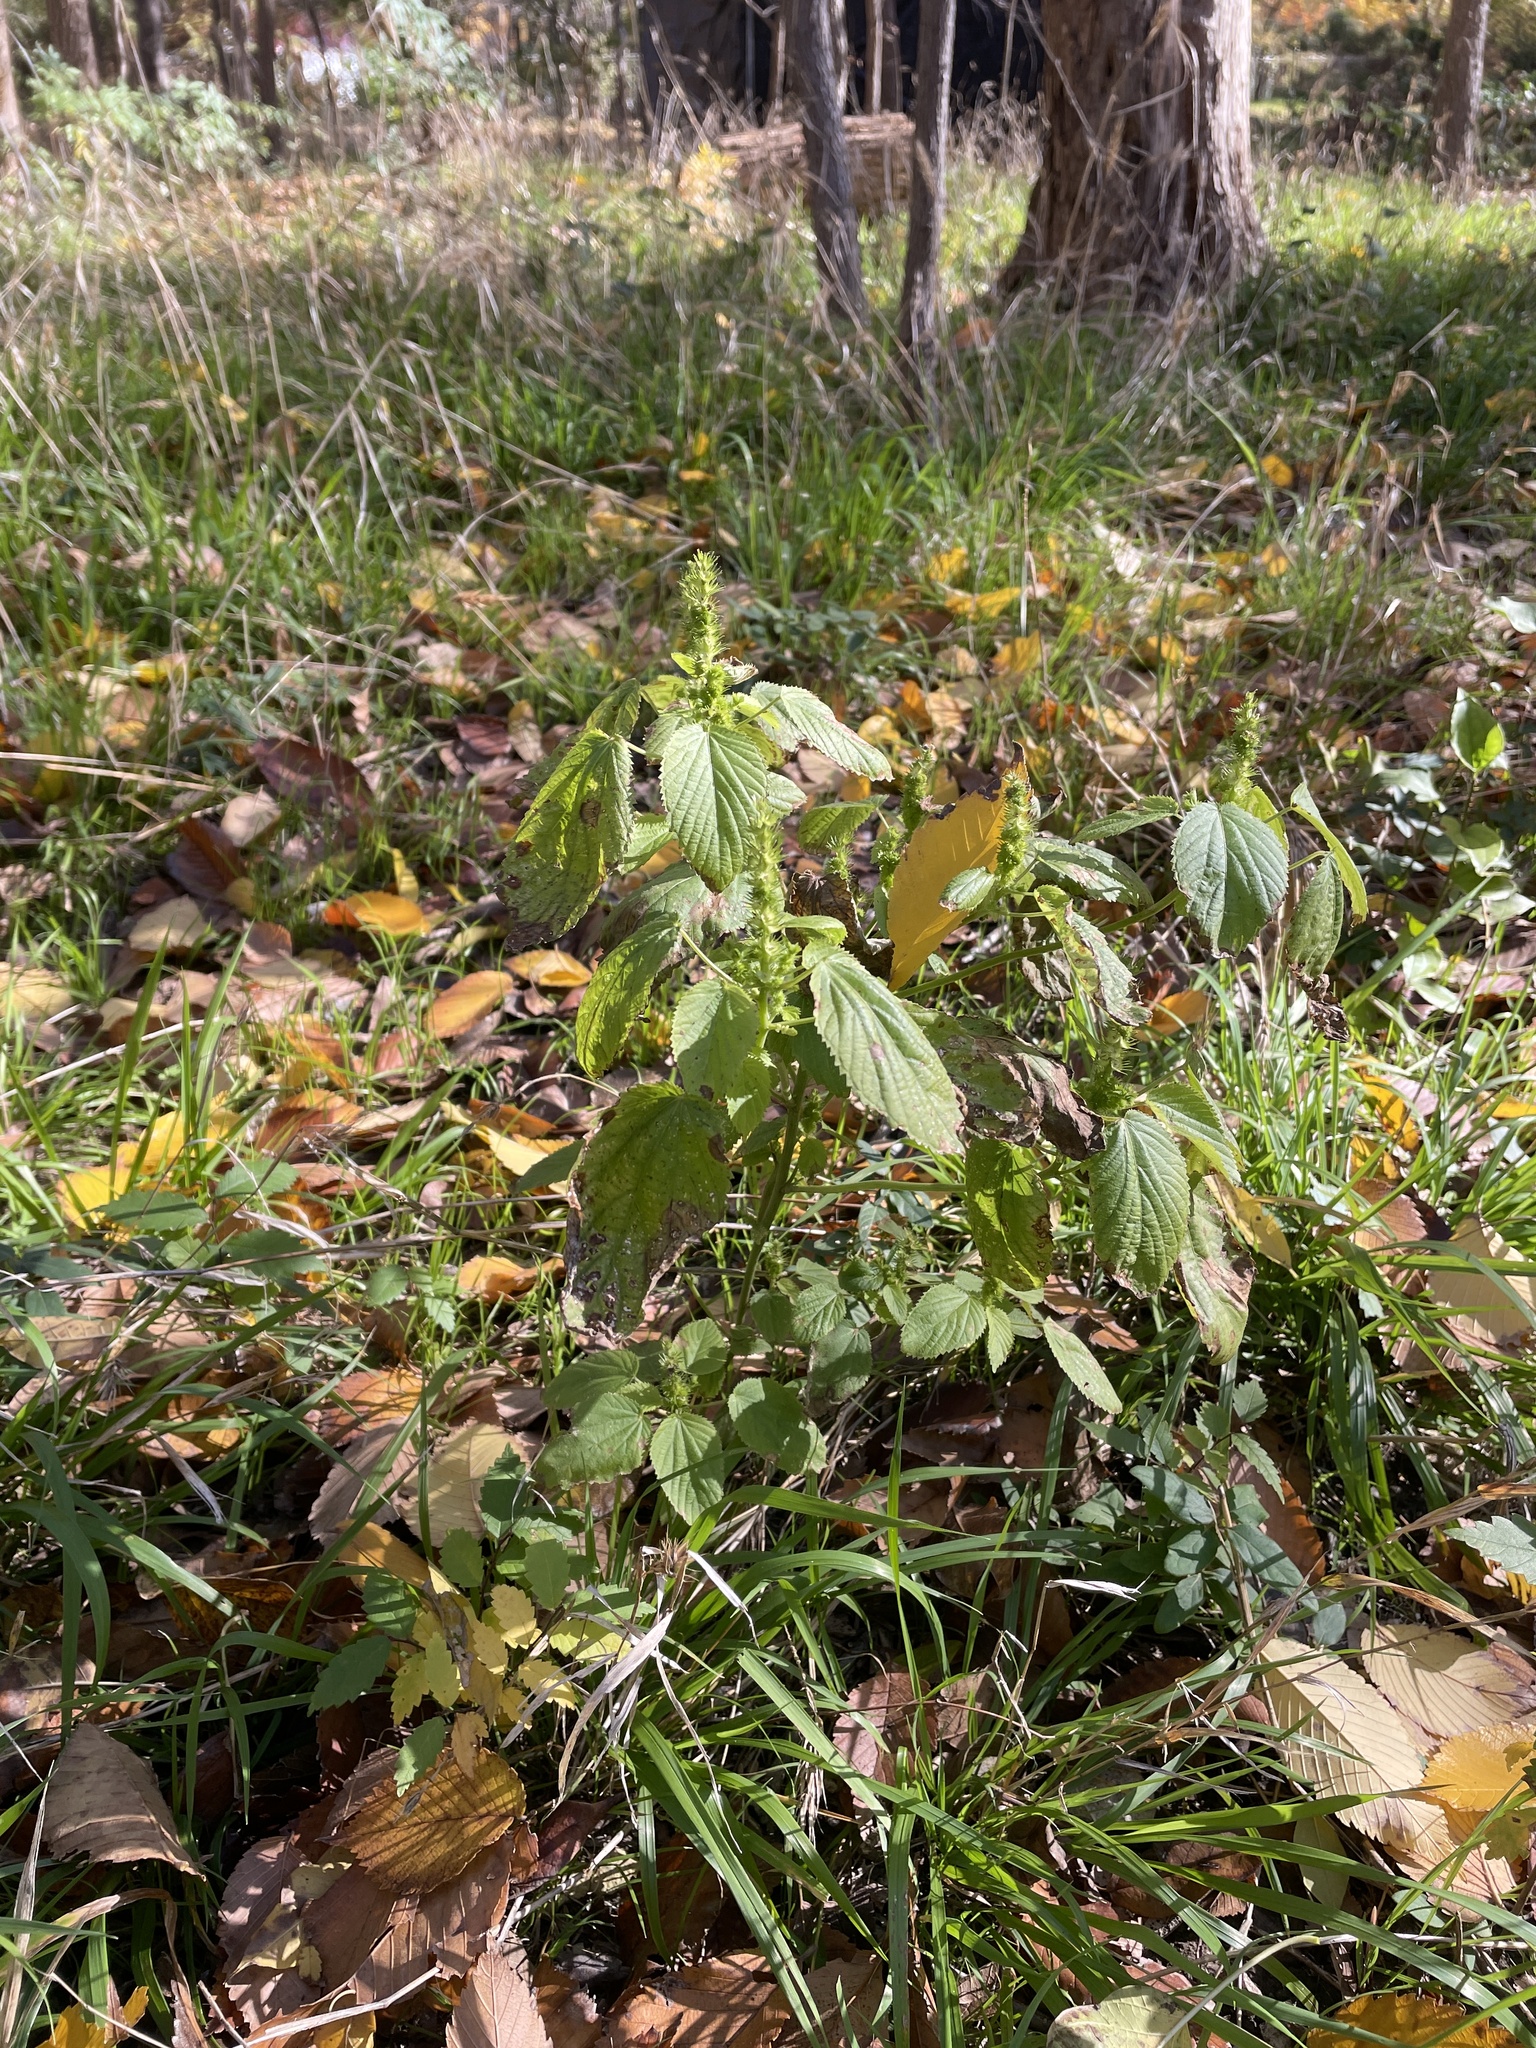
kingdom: Plantae
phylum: Tracheophyta
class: Magnoliopsida
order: Malpighiales
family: Euphorbiaceae
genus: Acalypha
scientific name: Acalypha ostryifolia
